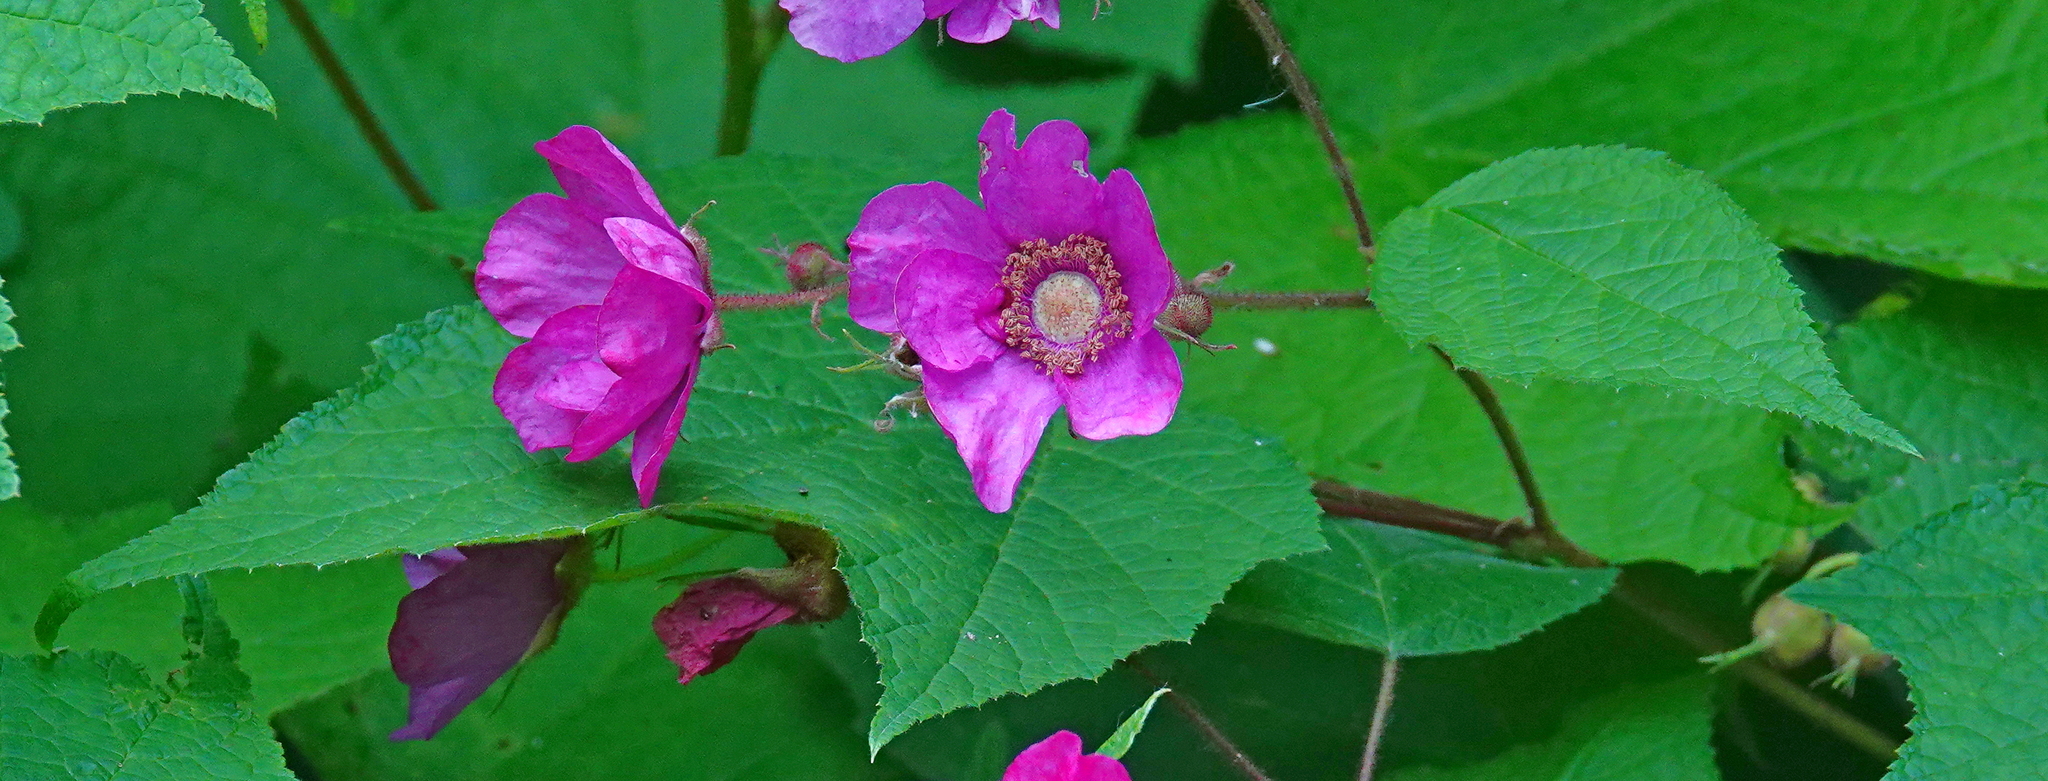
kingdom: Plantae
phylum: Tracheophyta
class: Magnoliopsida
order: Rosales
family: Rosaceae
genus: Rubus
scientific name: Rubus odoratus
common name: Purple-flowered raspberry
